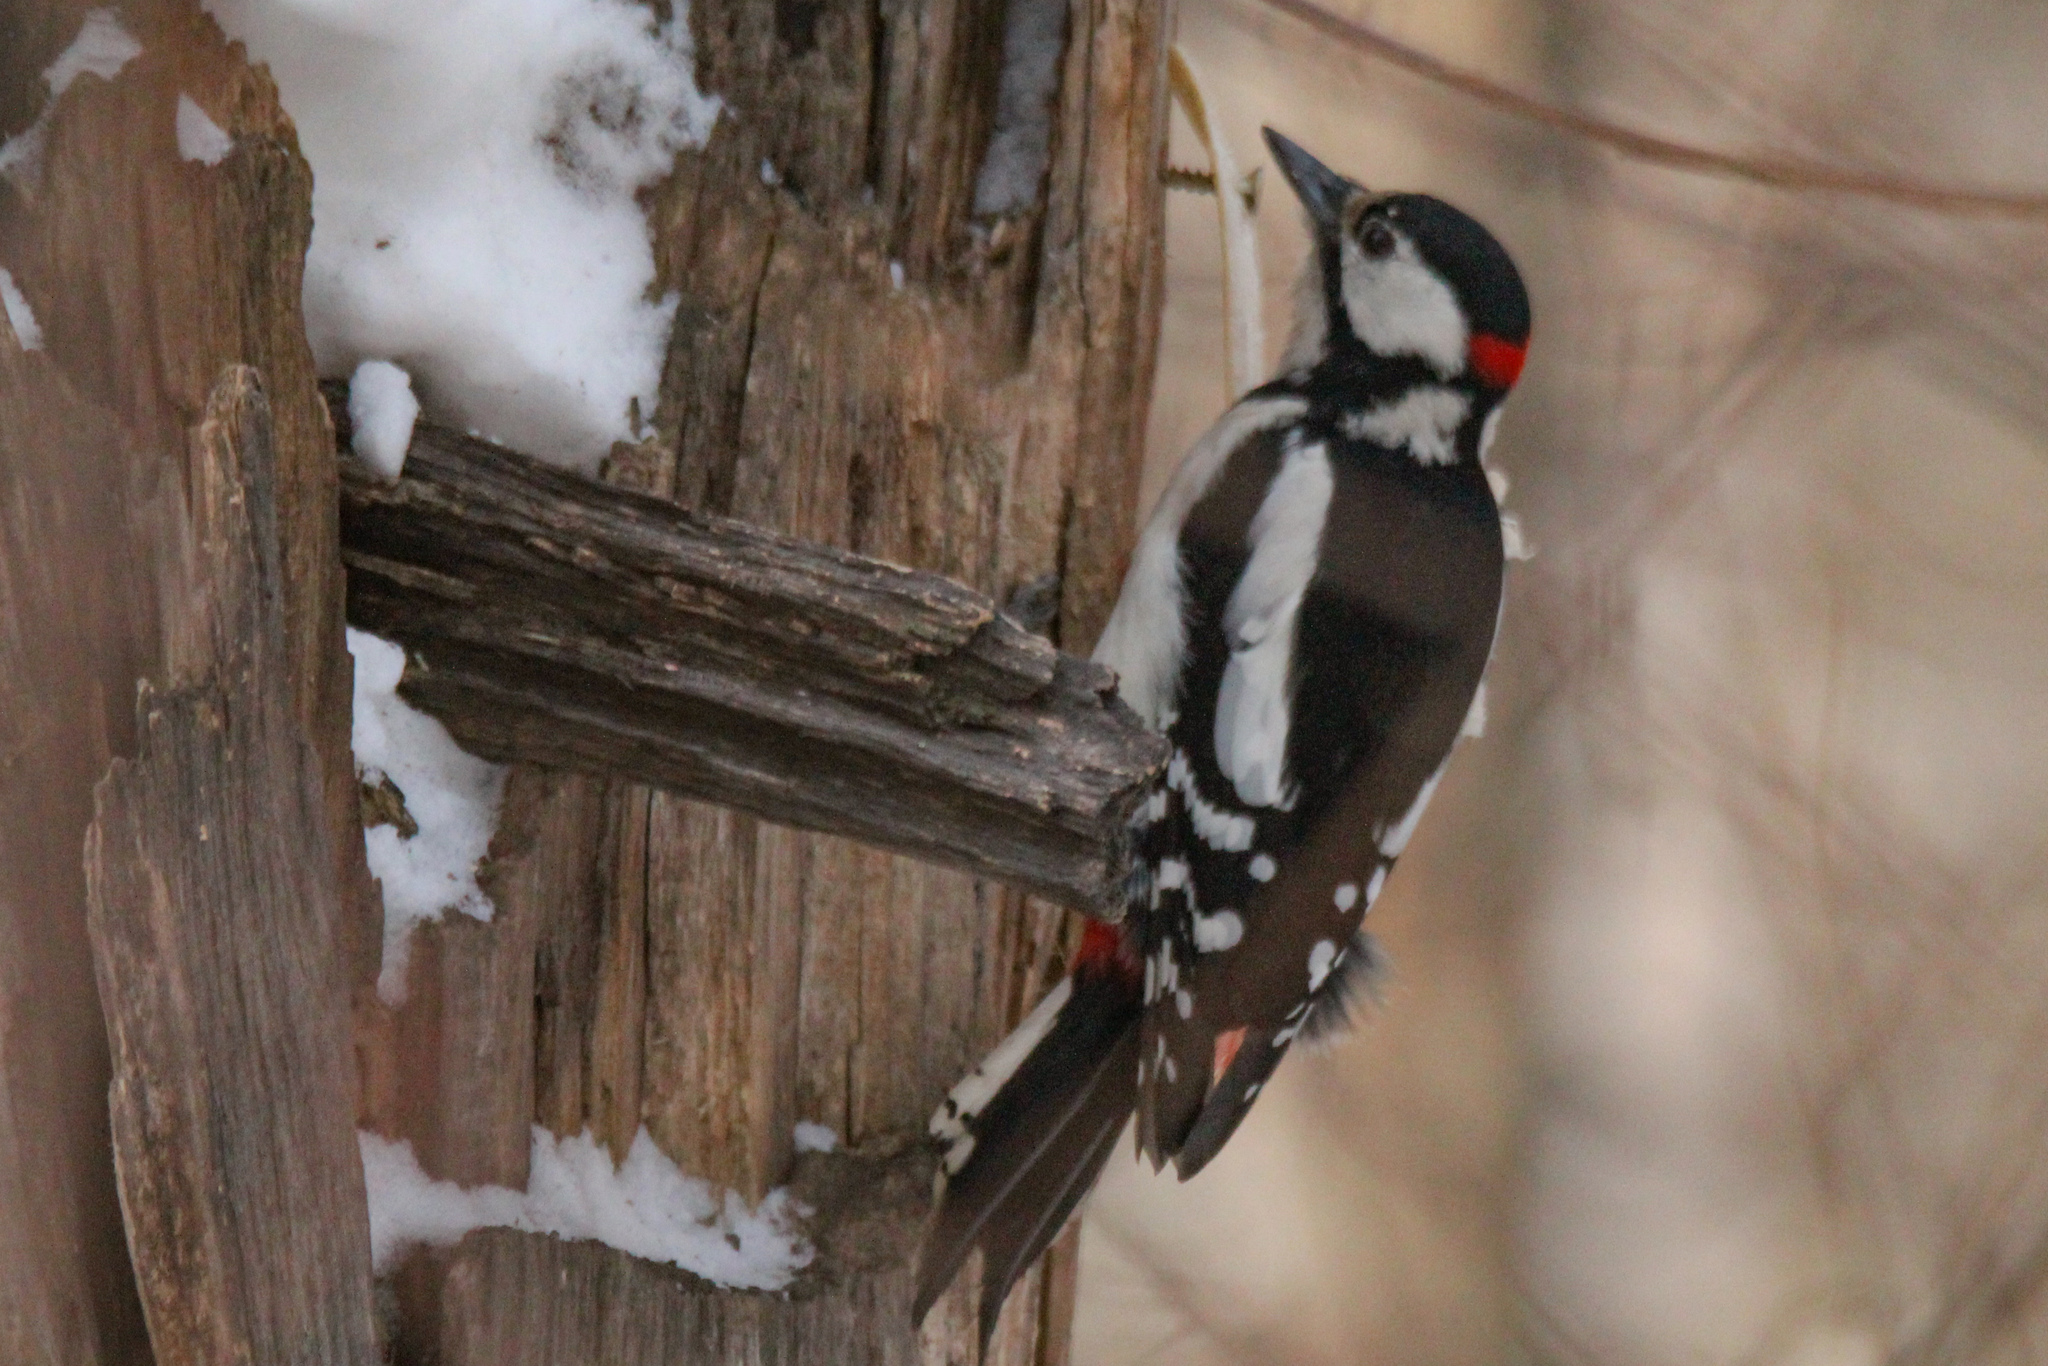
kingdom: Animalia
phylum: Chordata
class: Aves
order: Piciformes
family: Picidae
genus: Dendrocopos
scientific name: Dendrocopos major
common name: Great spotted woodpecker
